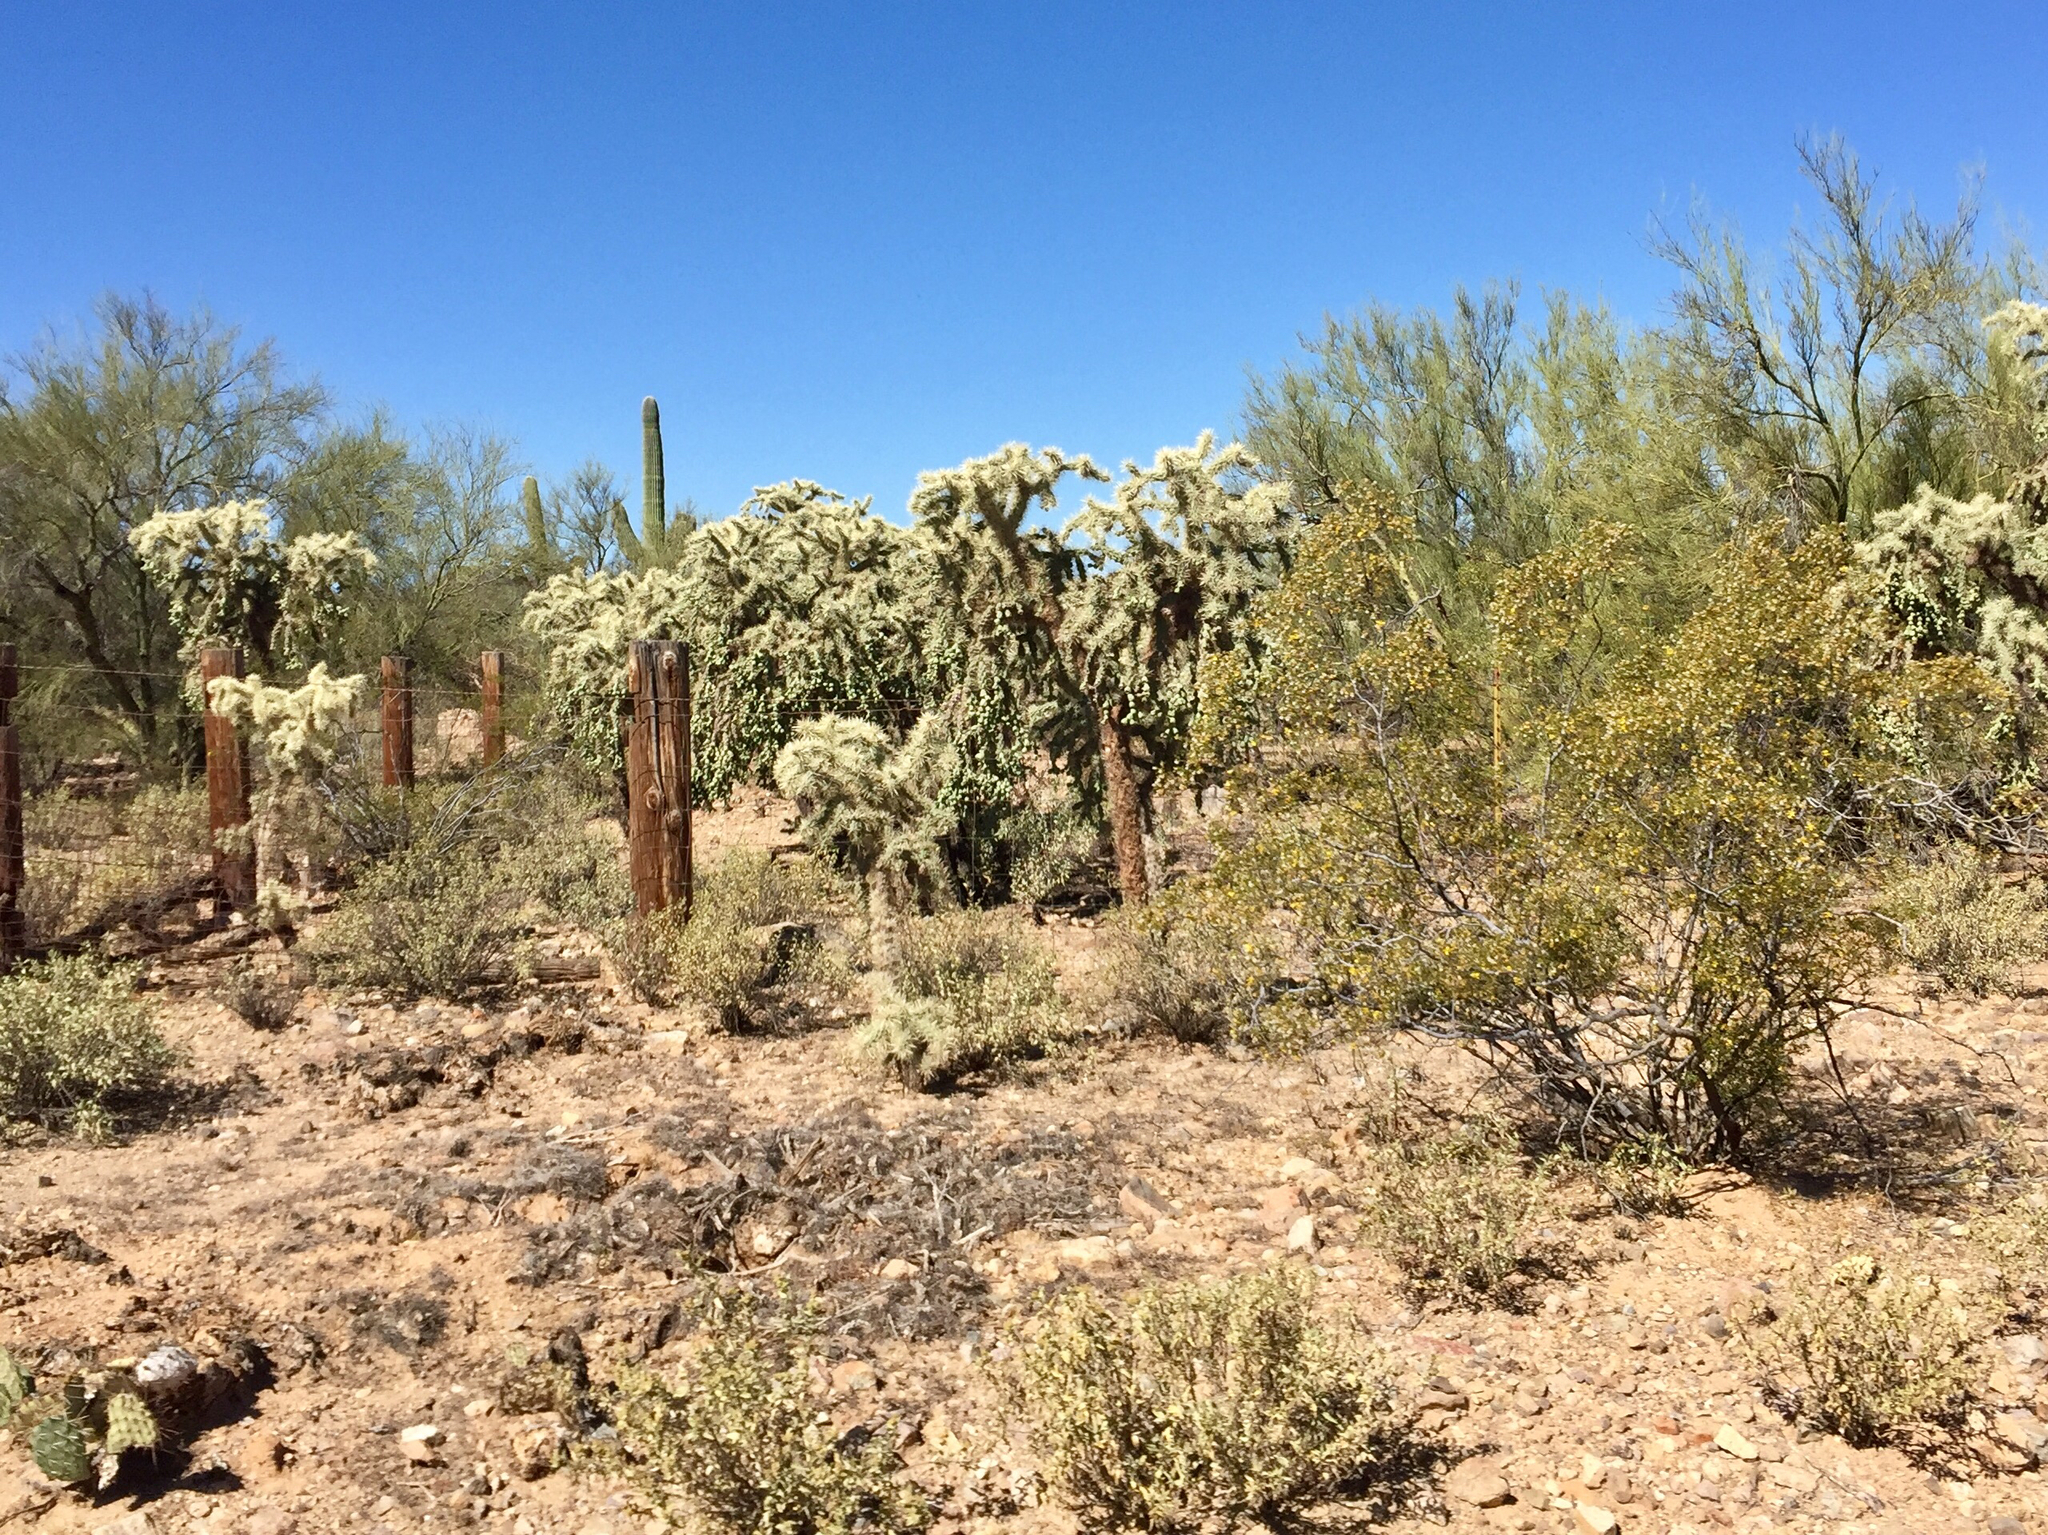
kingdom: Plantae
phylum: Tracheophyta
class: Magnoliopsida
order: Caryophyllales
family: Cactaceae
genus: Cylindropuntia
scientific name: Cylindropuntia fulgida
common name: Jumping cholla
